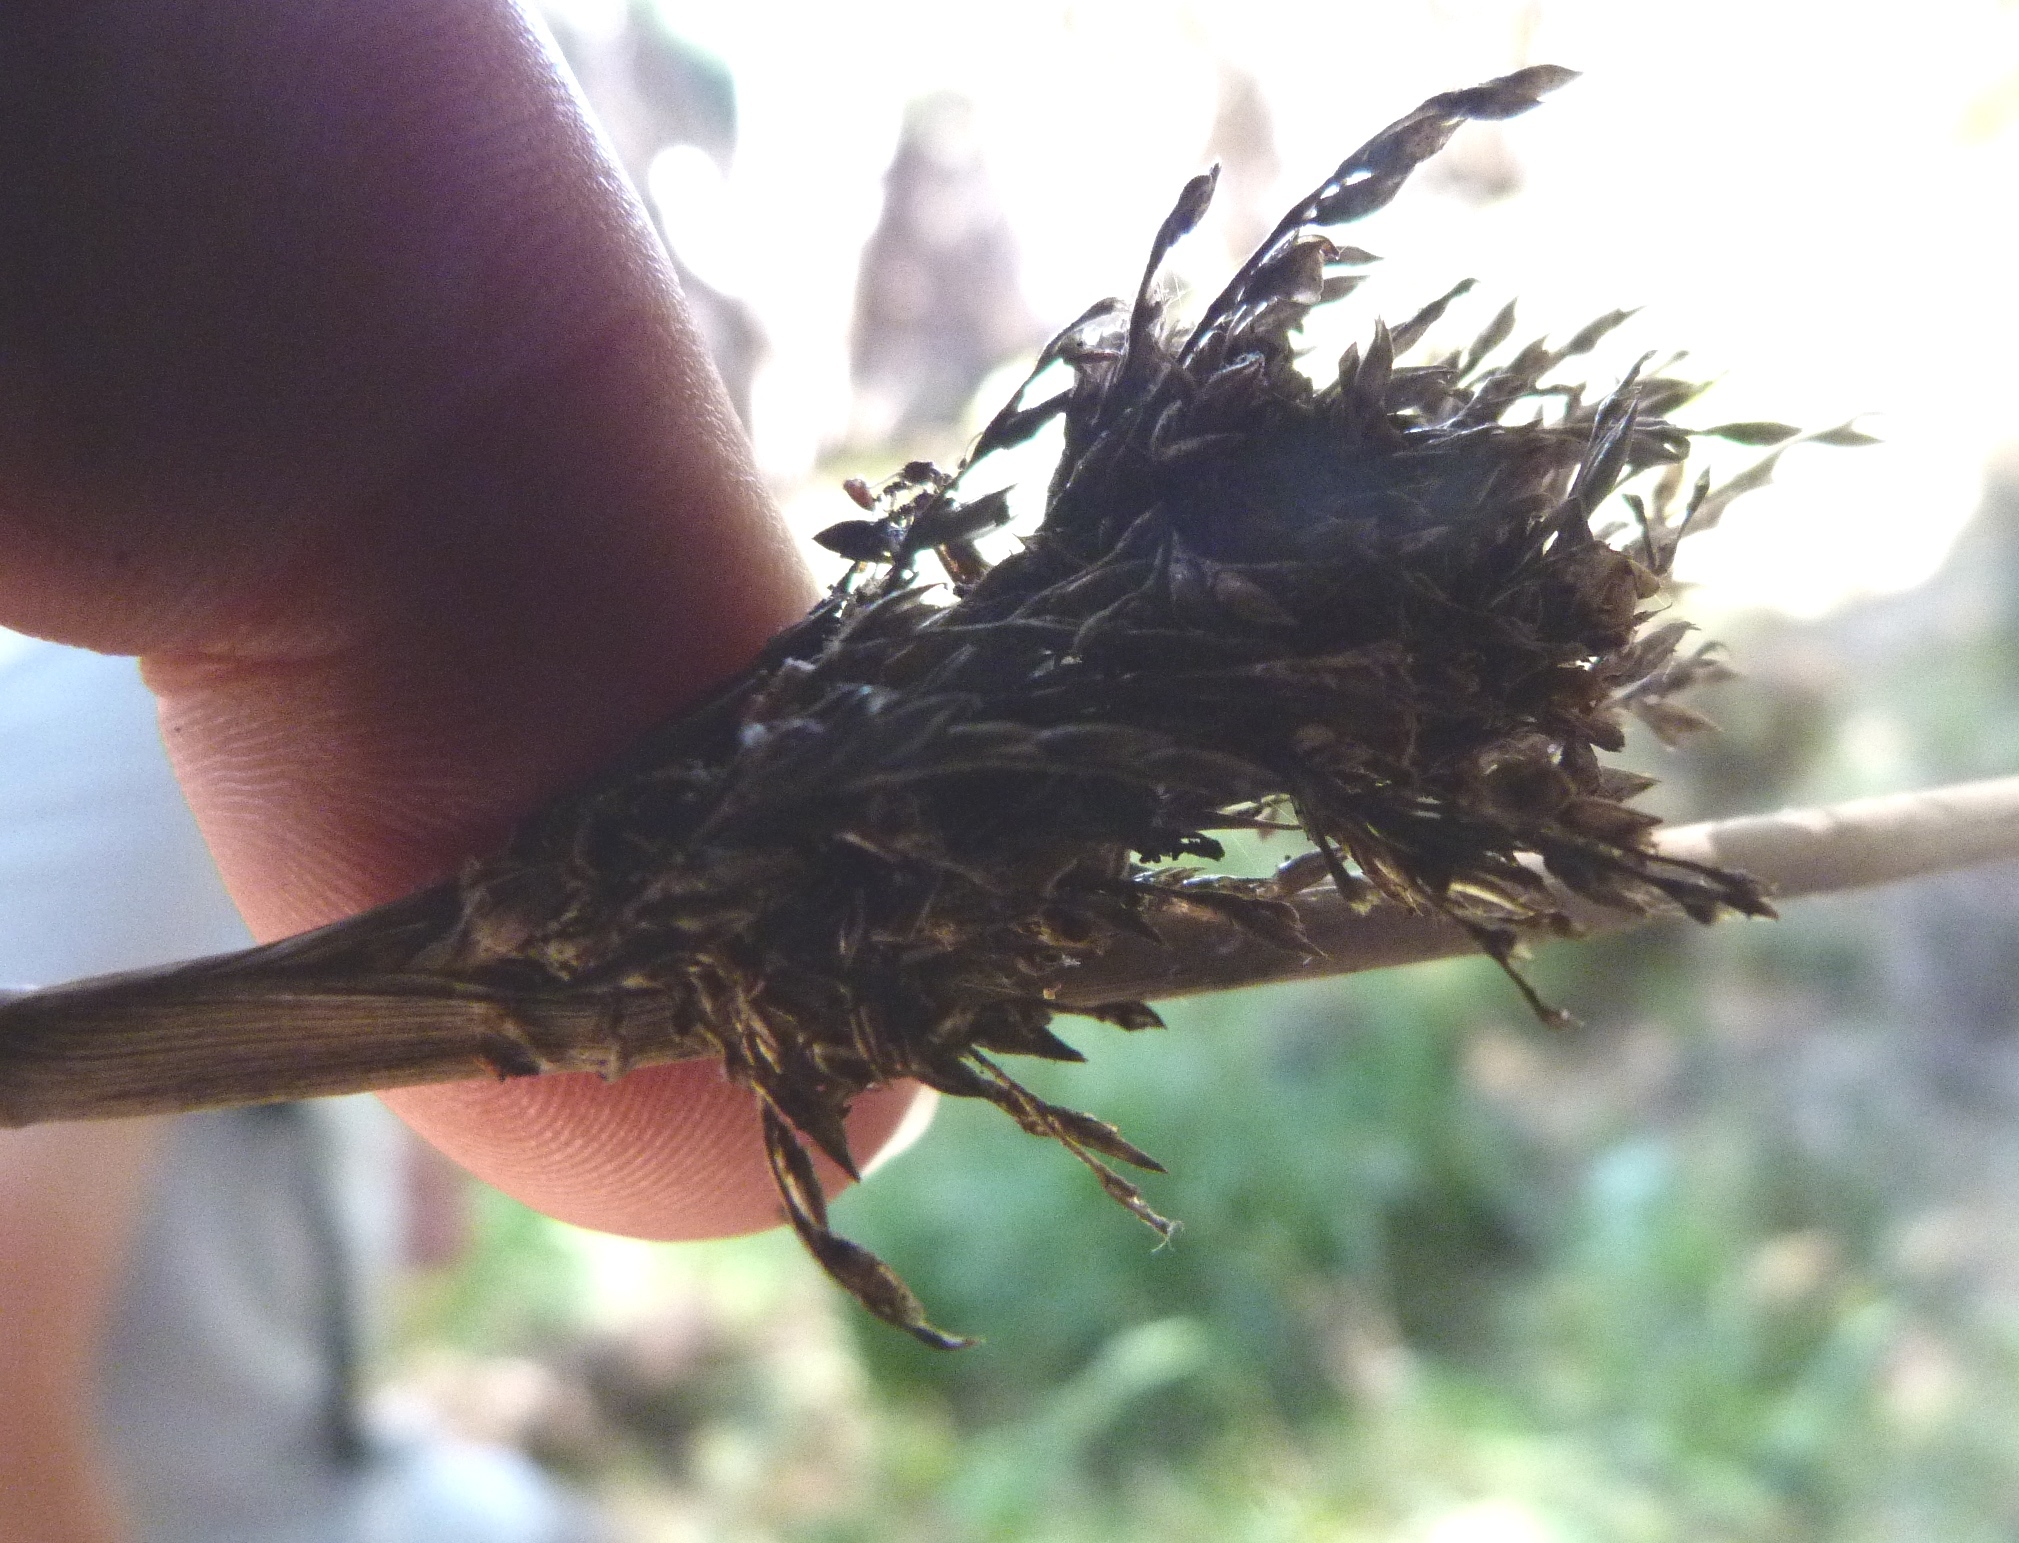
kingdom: Plantae
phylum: Tracheophyta
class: Liliopsida
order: Poales
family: Juncaceae
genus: Juncus
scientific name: Juncus pallidus
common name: Great soft-rush
